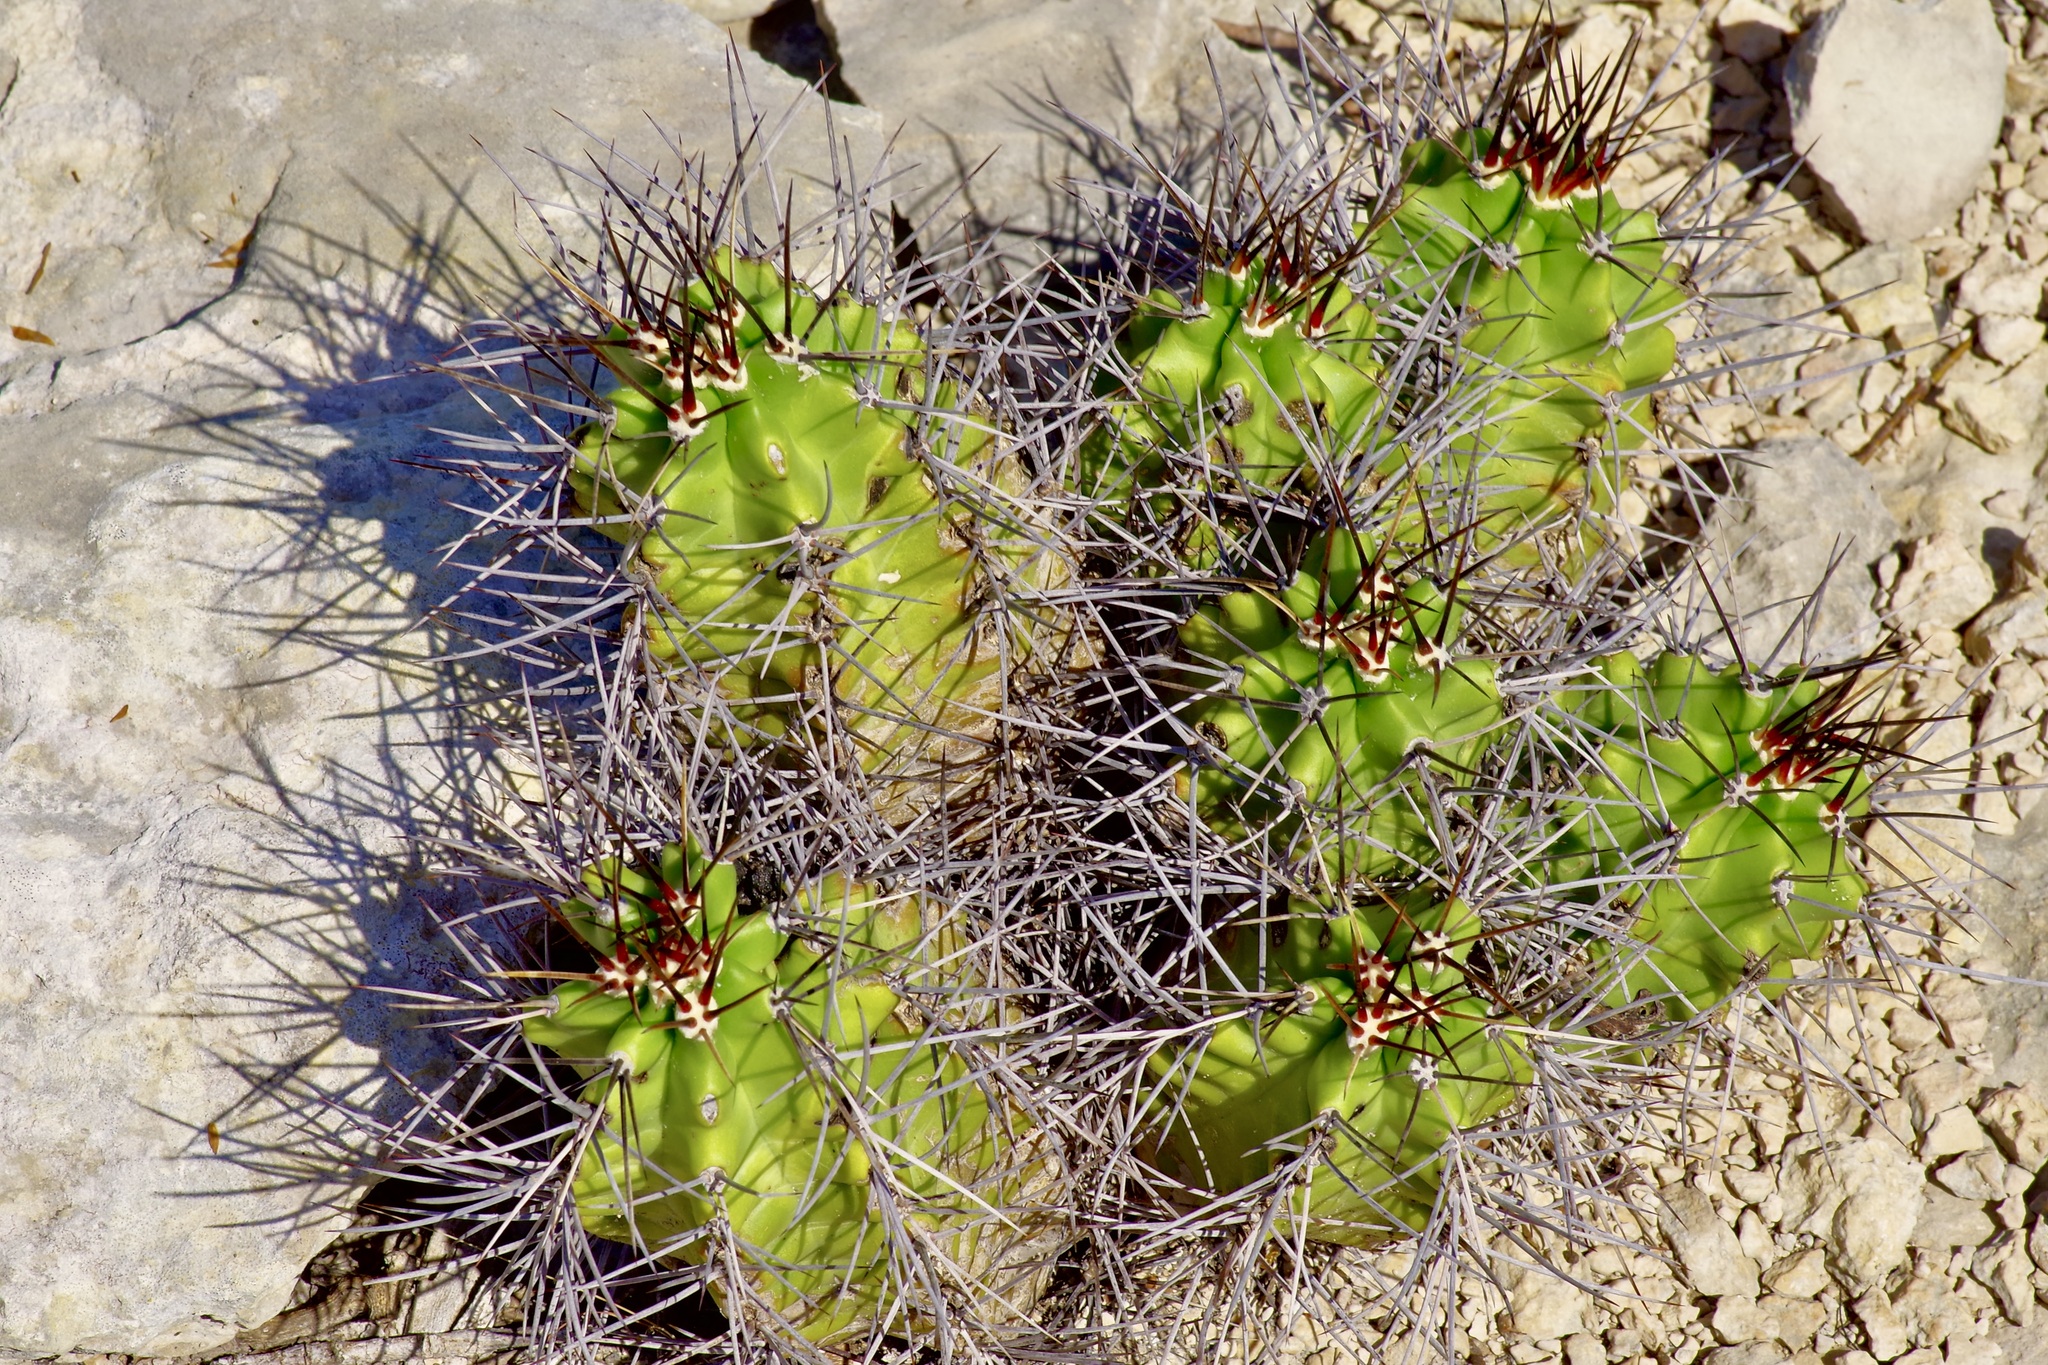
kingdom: Plantae
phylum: Tracheophyta
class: Magnoliopsida
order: Caryophyllales
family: Cactaceae
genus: Echinocereus
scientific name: Echinocereus coccineus
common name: Scarlet hedgehog cactus
